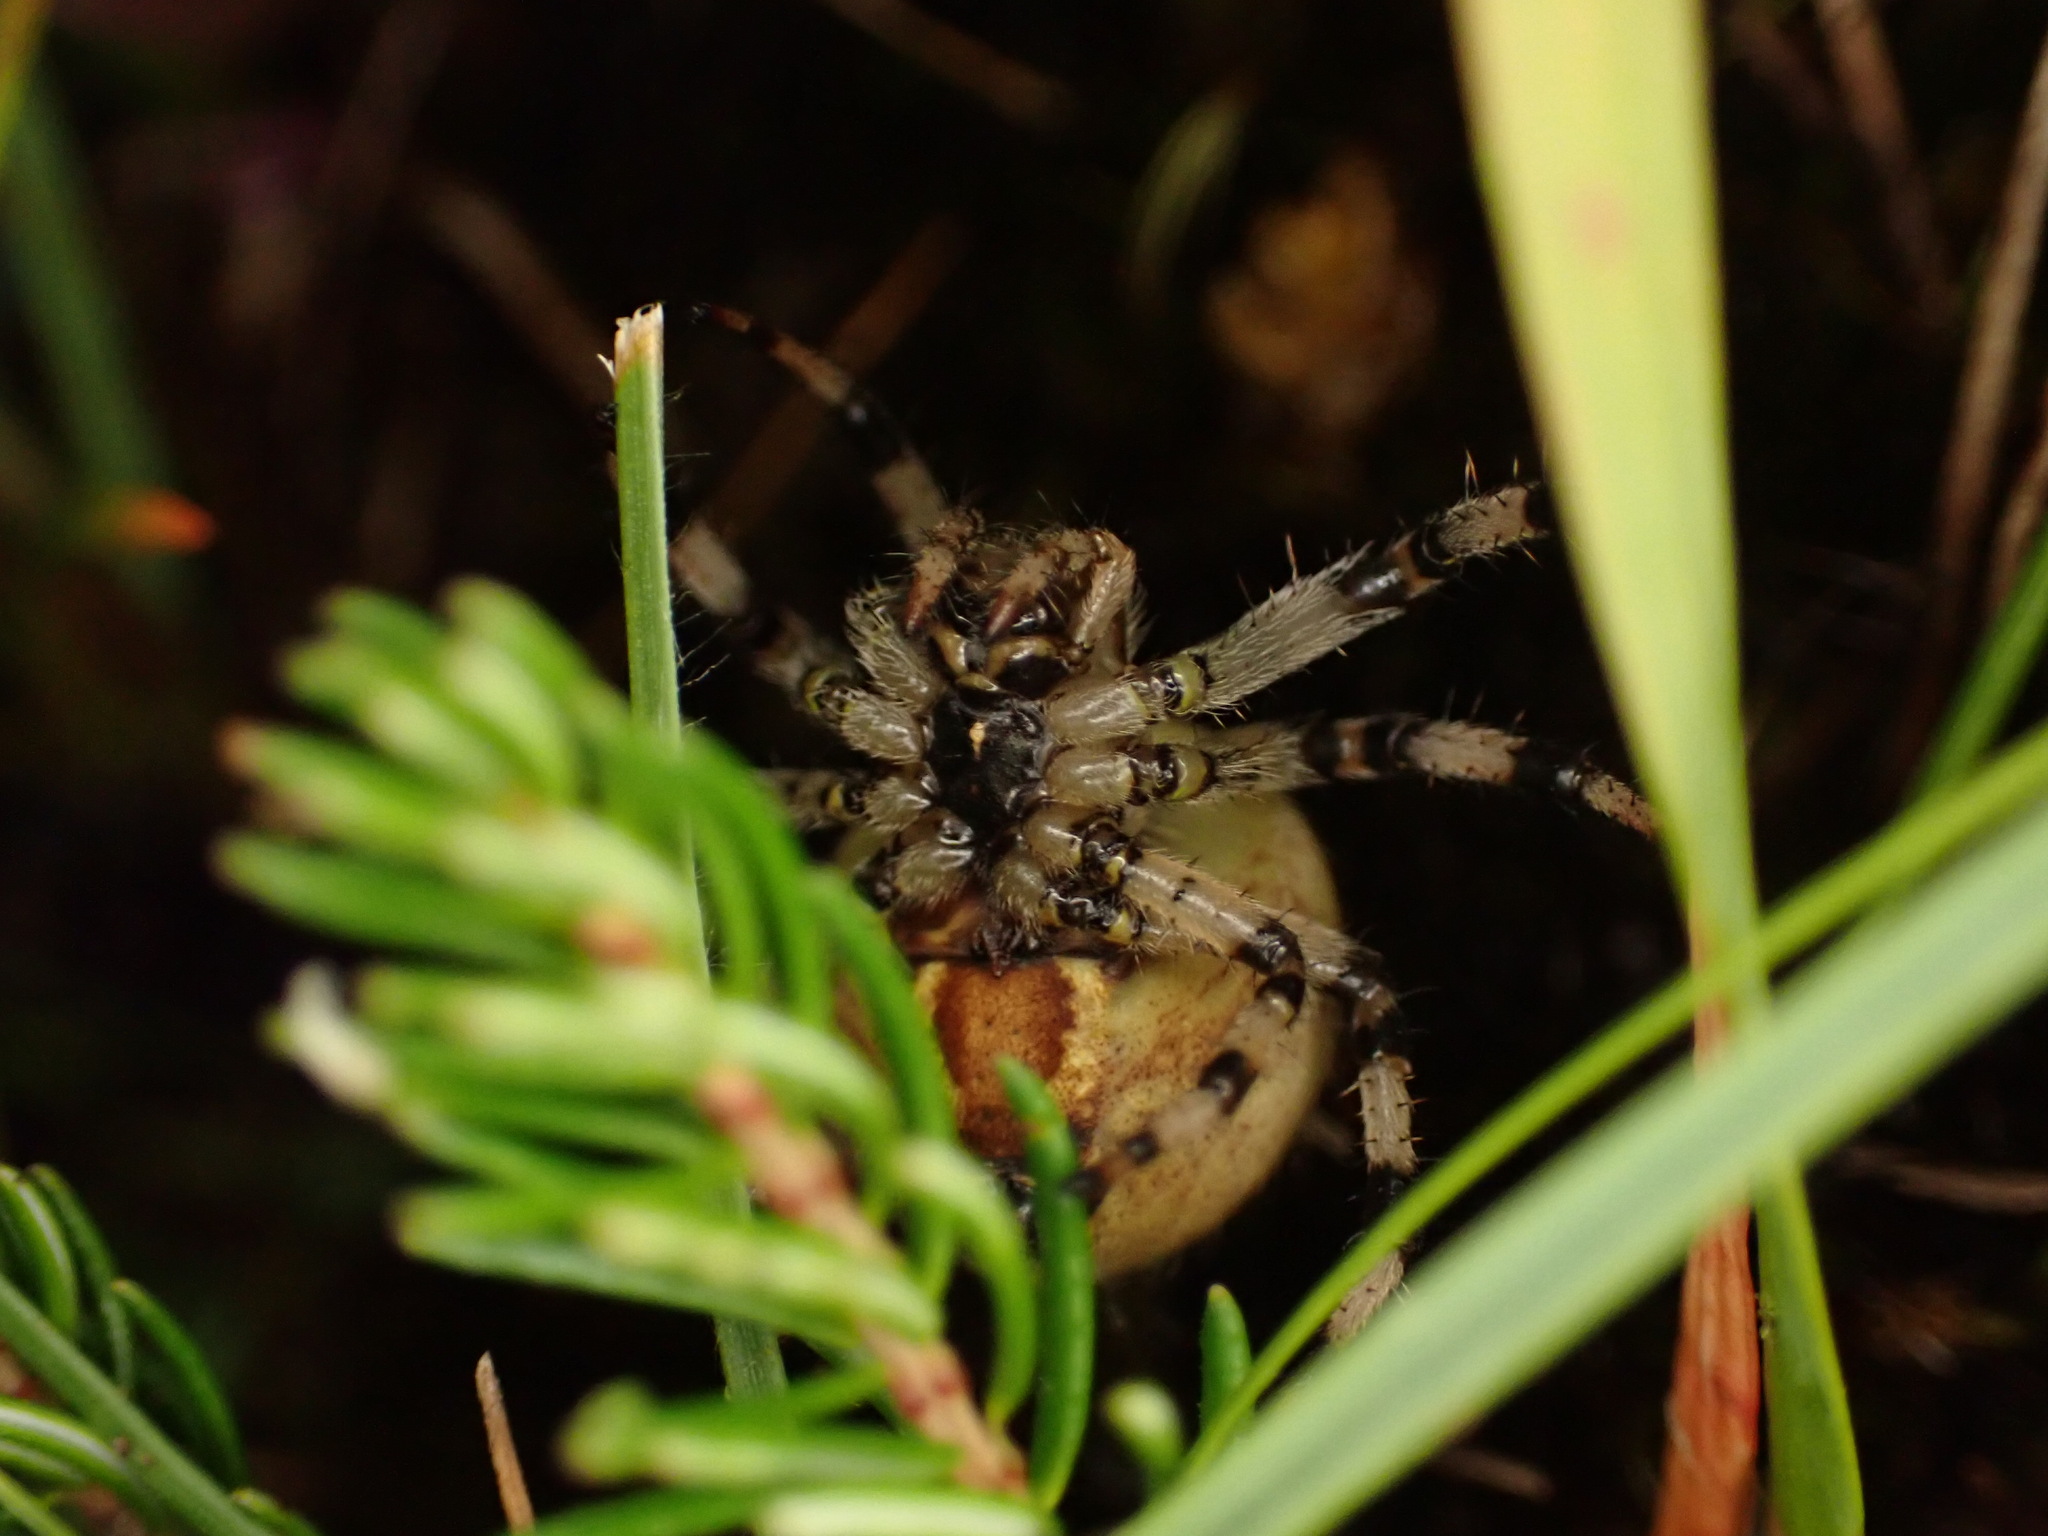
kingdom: Animalia
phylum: Arthropoda
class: Arachnida
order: Araneae
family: Araneidae
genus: Araneus
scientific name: Araneus quadratus
